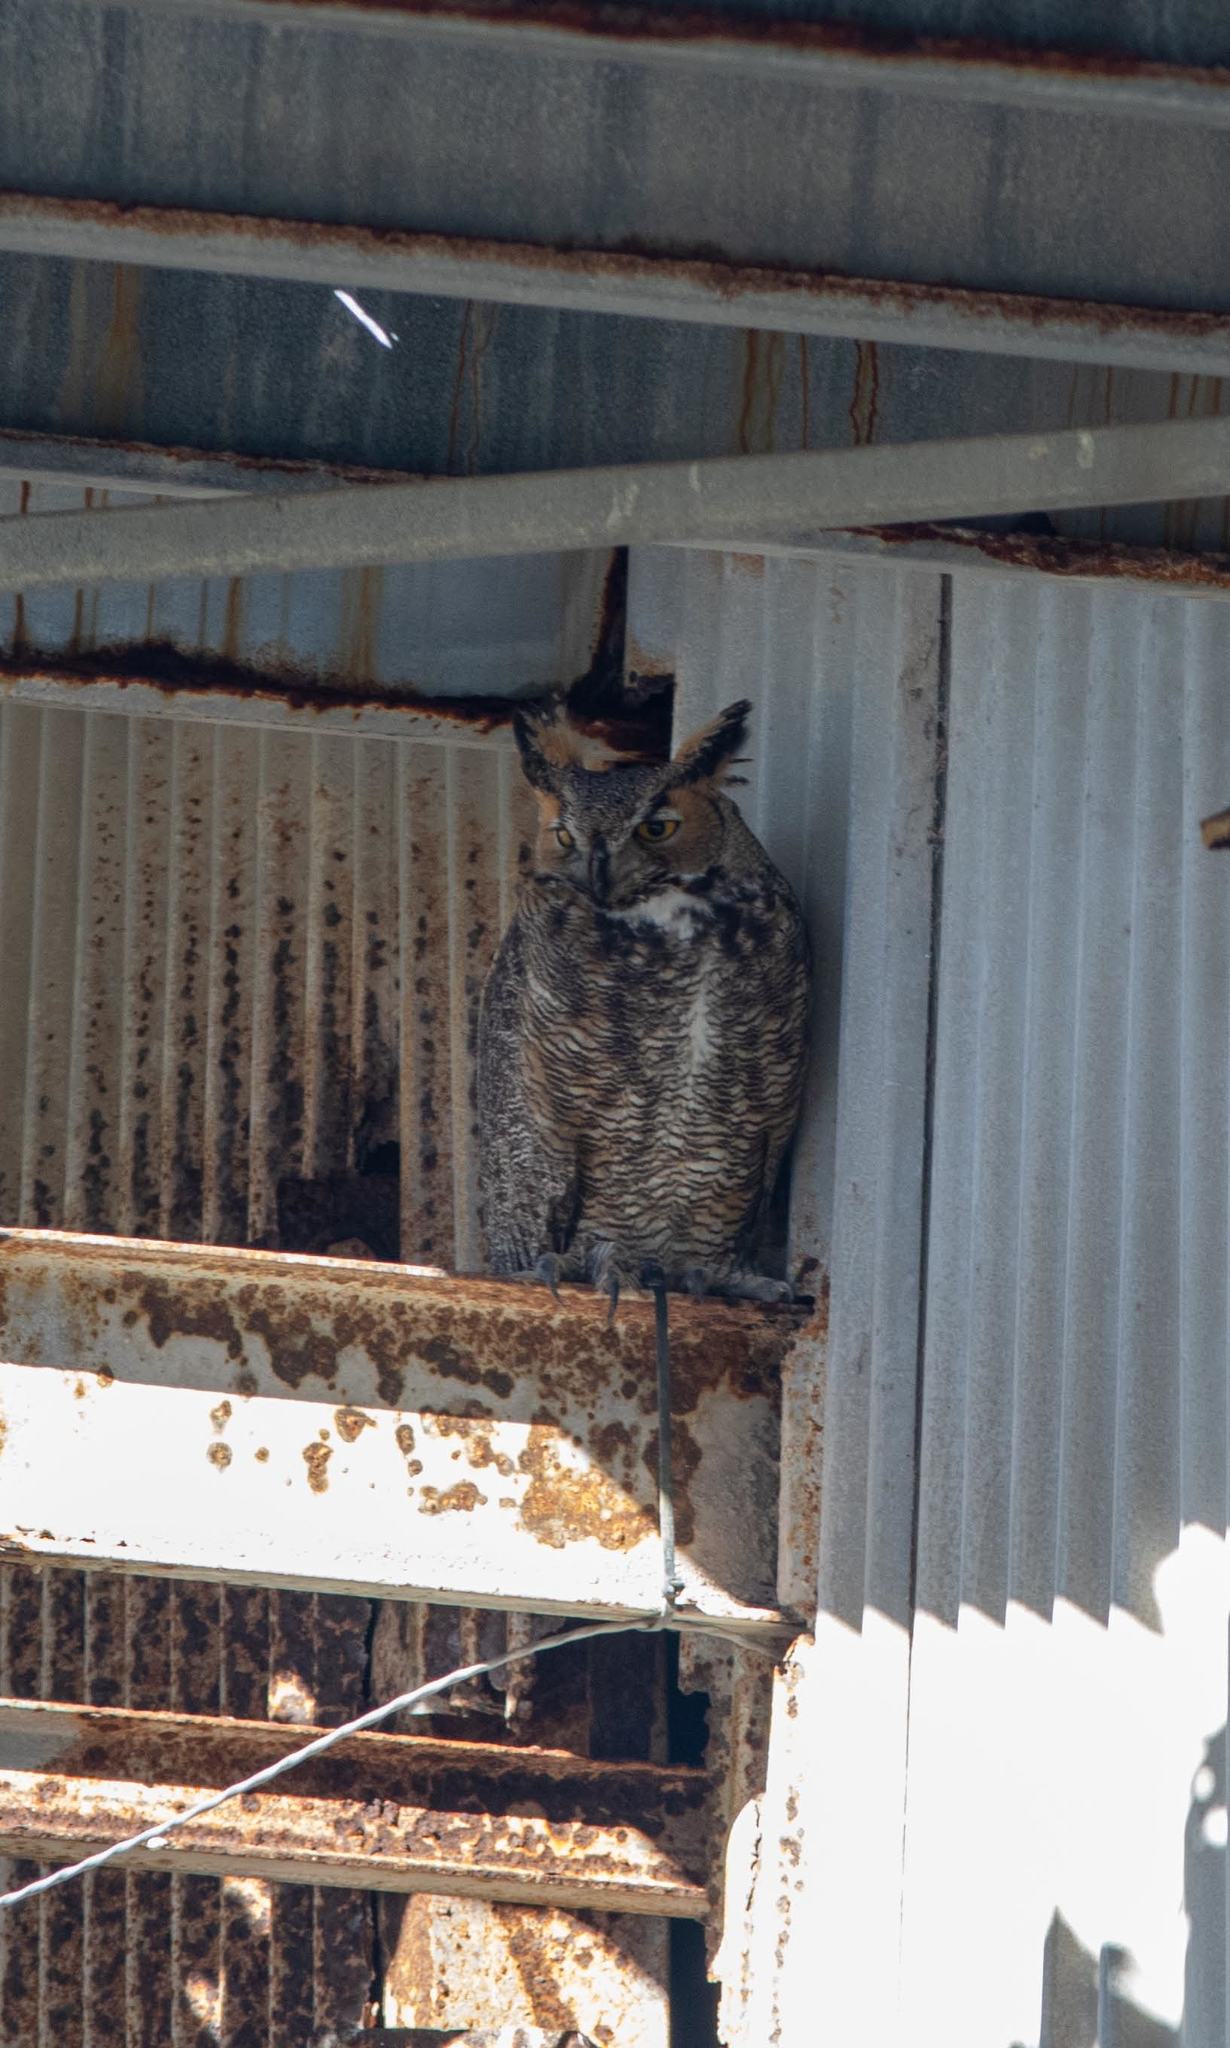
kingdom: Animalia
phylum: Chordata
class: Aves
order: Strigiformes
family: Strigidae
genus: Bubo
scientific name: Bubo virginianus
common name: Great horned owl
